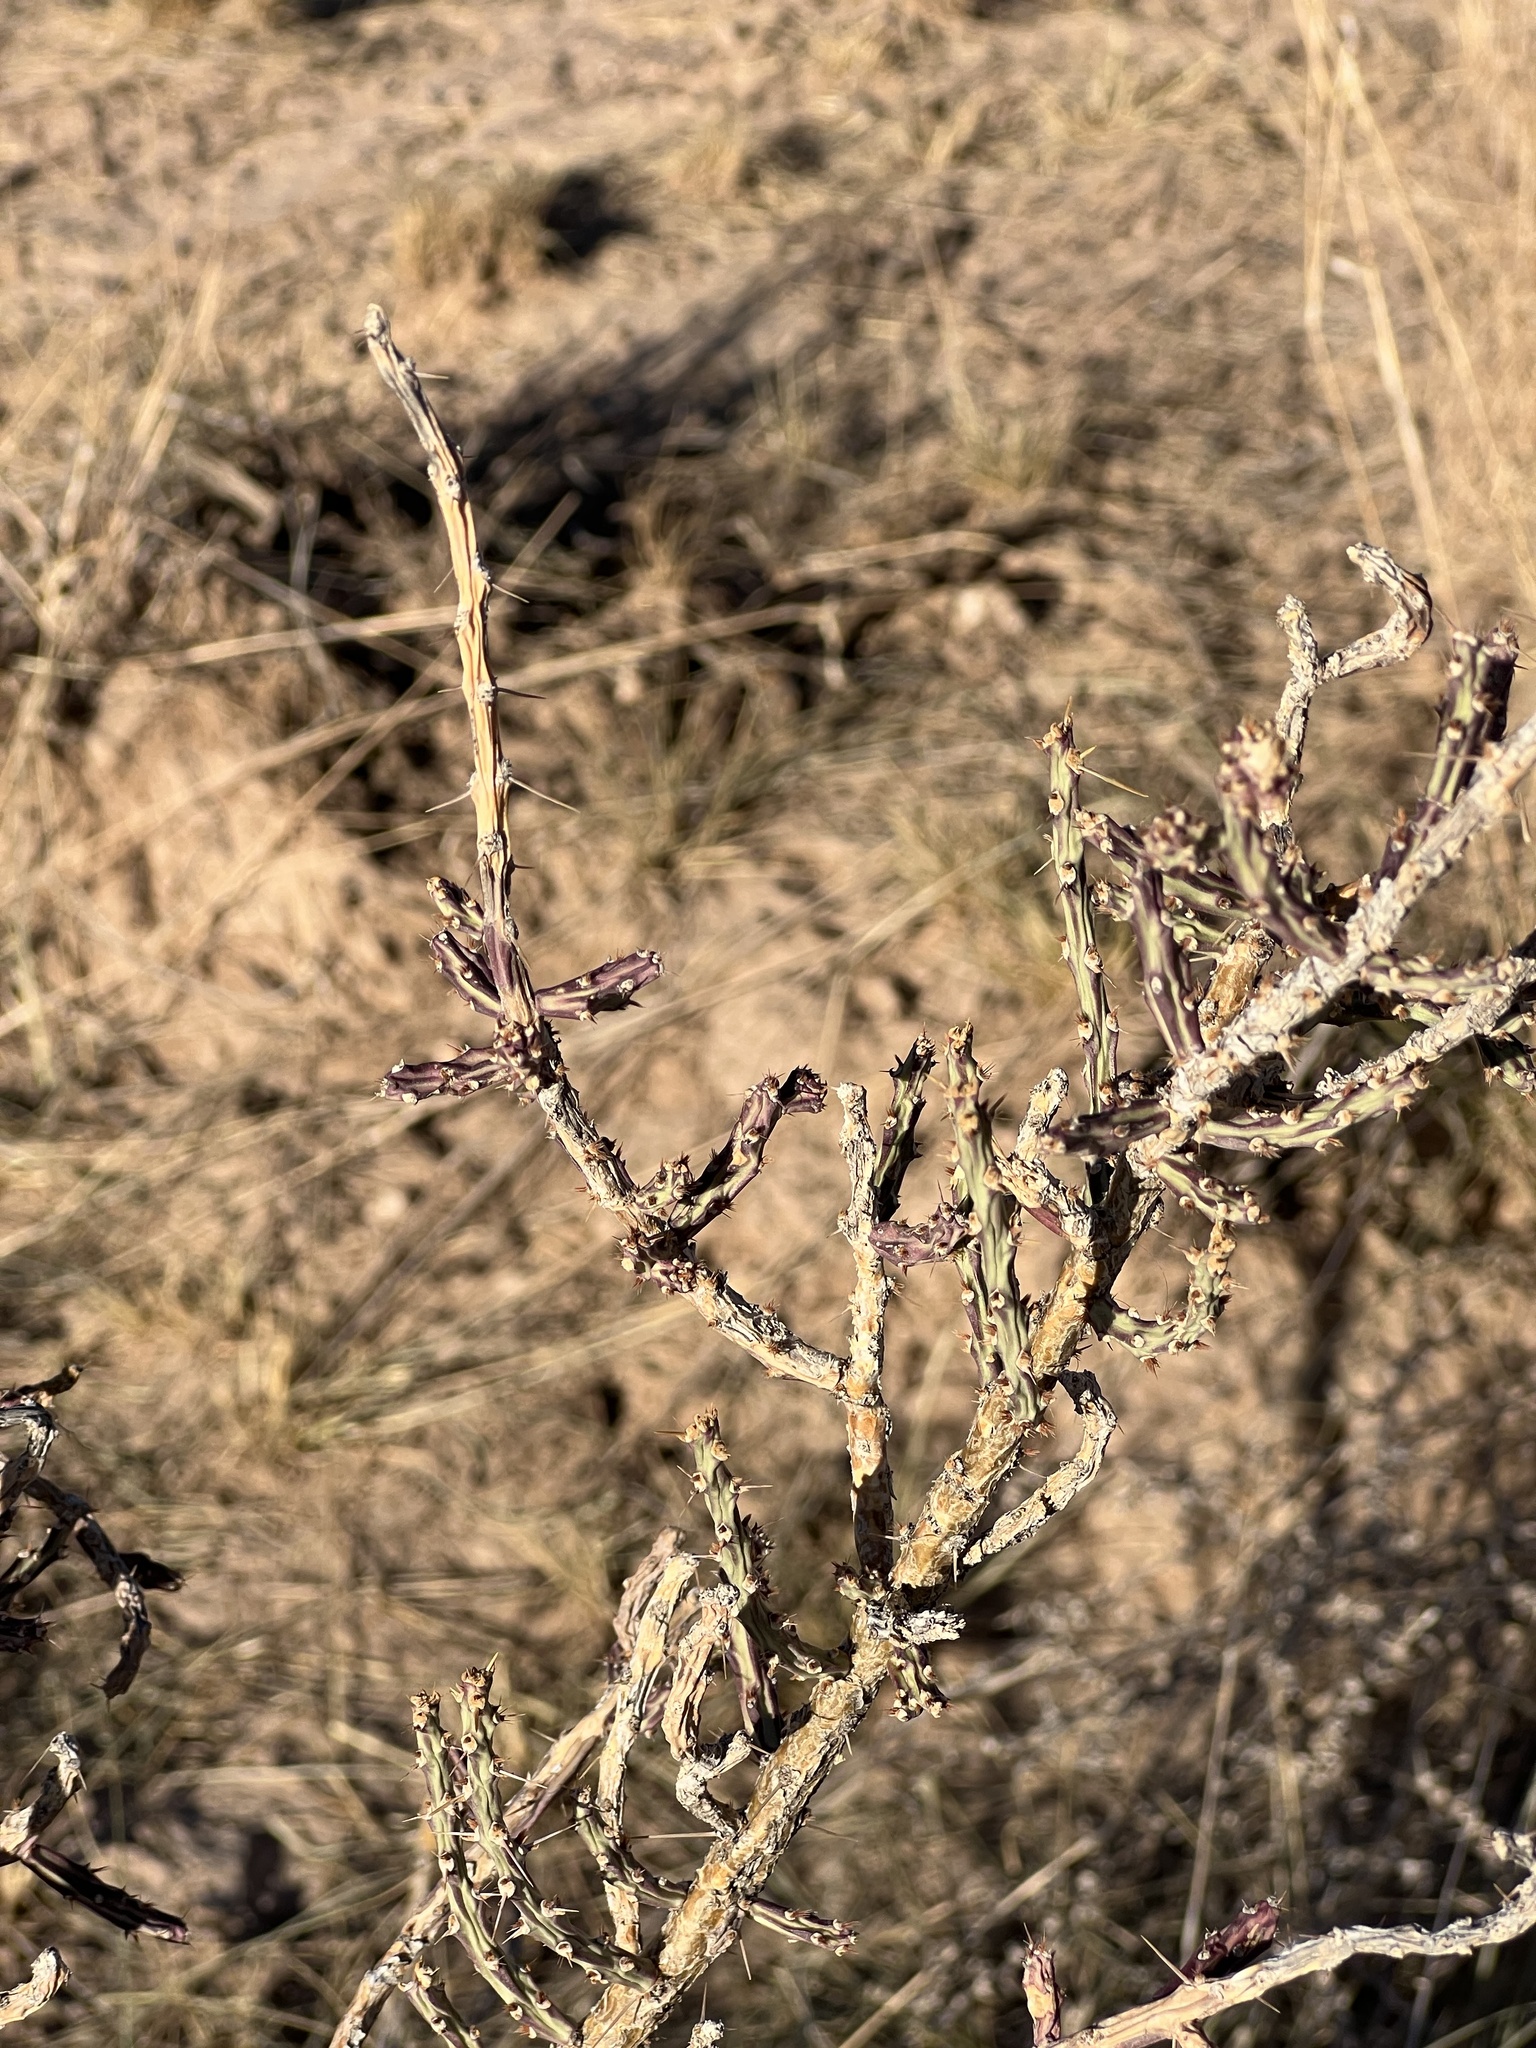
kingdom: Plantae
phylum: Tracheophyta
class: Magnoliopsida
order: Caryophyllales
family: Cactaceae
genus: Cylindropuntia
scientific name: Cylindropuntia leptocaulis
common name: Christmas cactus
